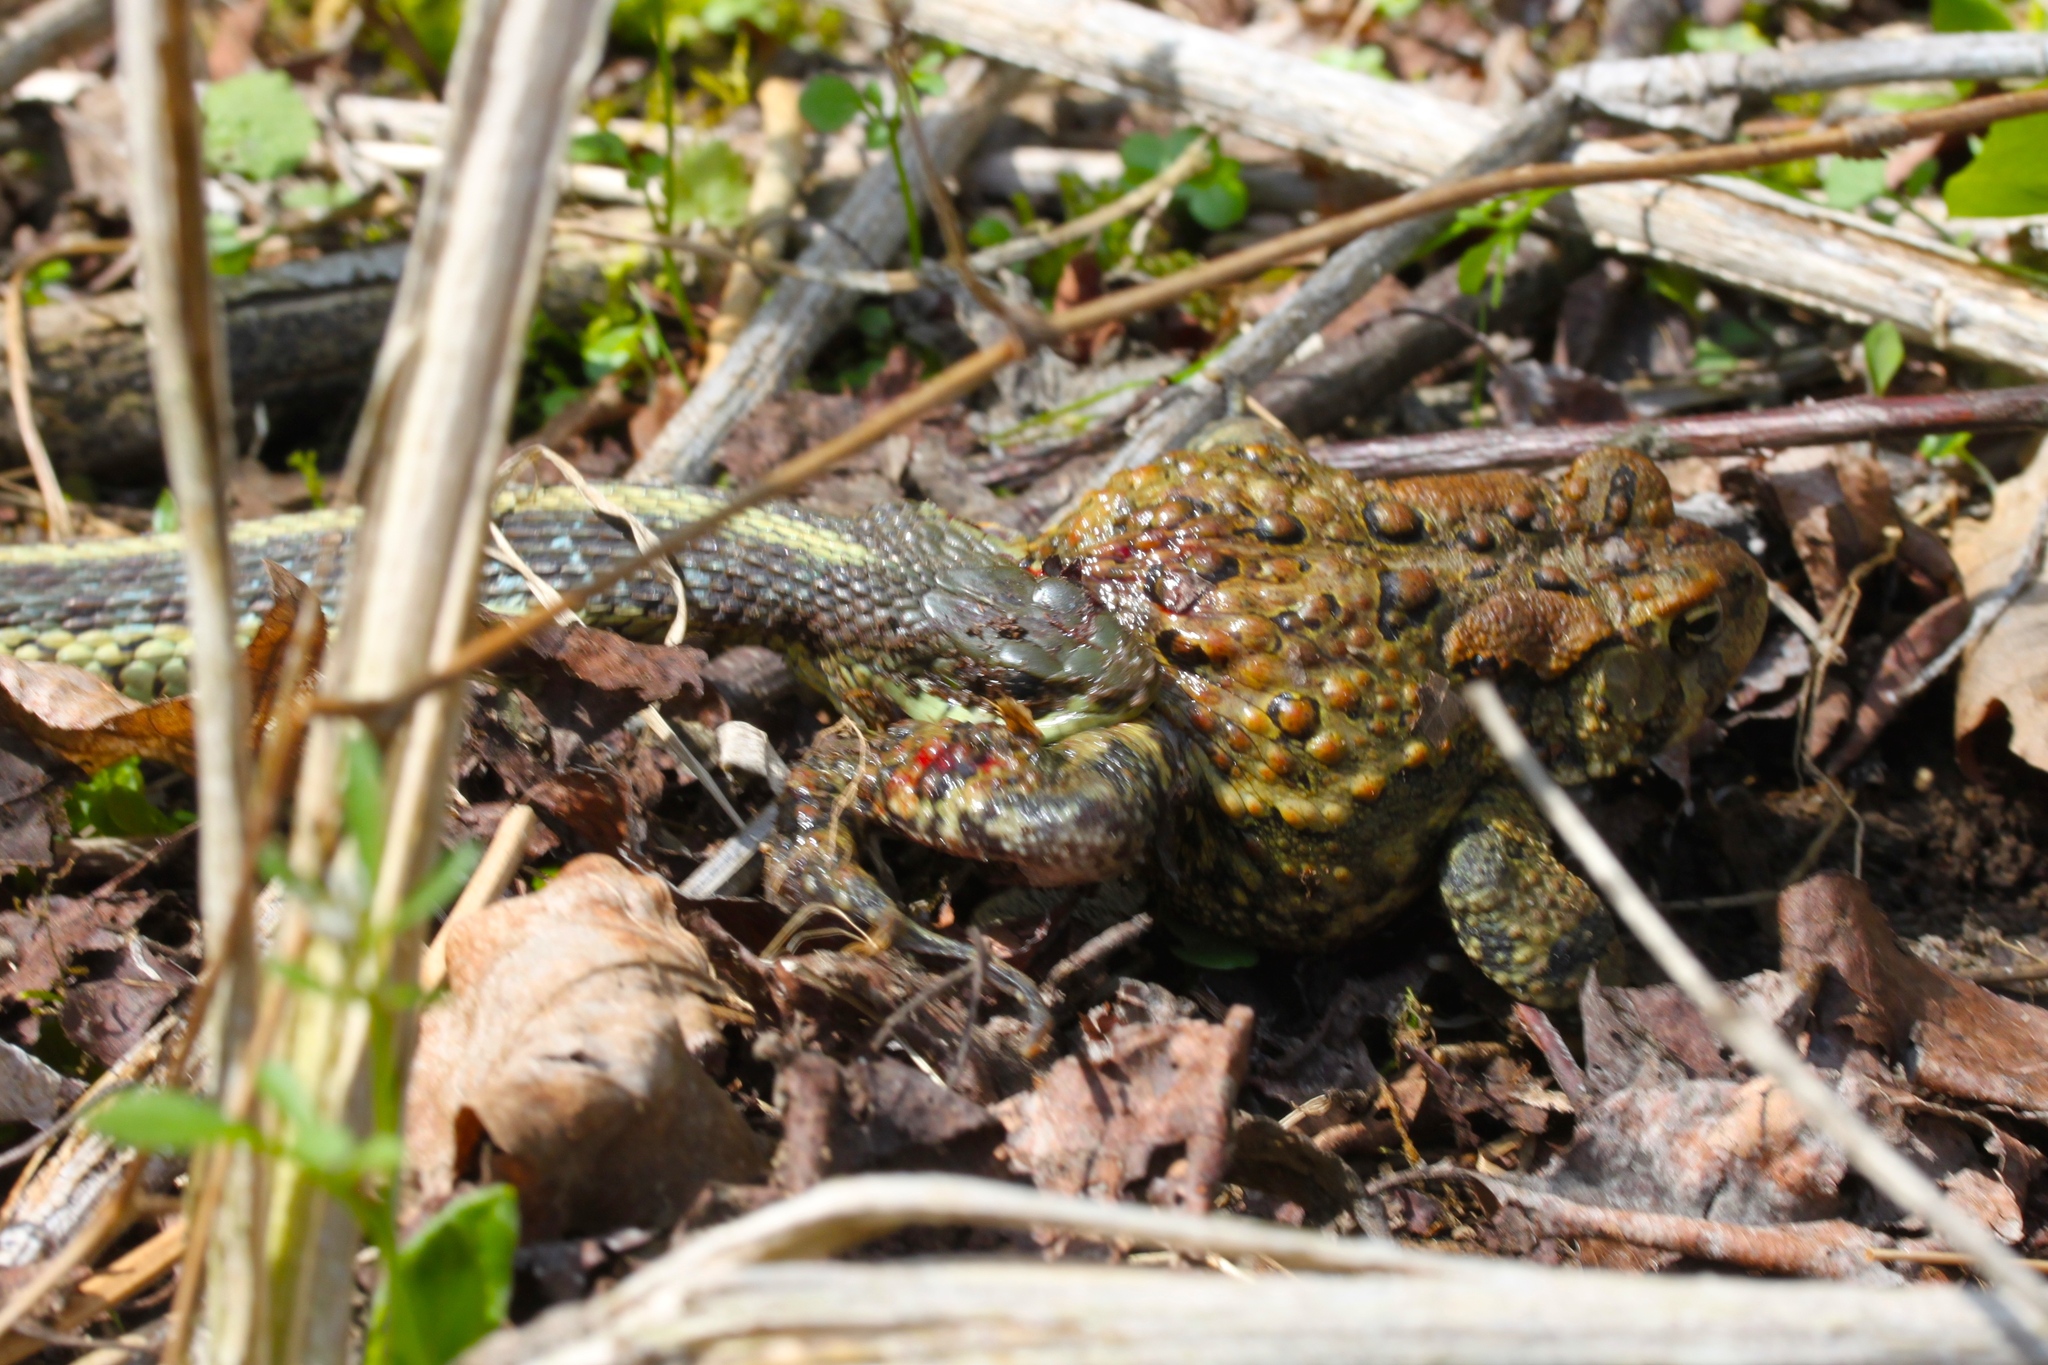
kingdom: Animalia
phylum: Chordata
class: Squamata
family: Colubridae
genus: Thamnophis
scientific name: Thamnophis sirtalis
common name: Common garter snake
